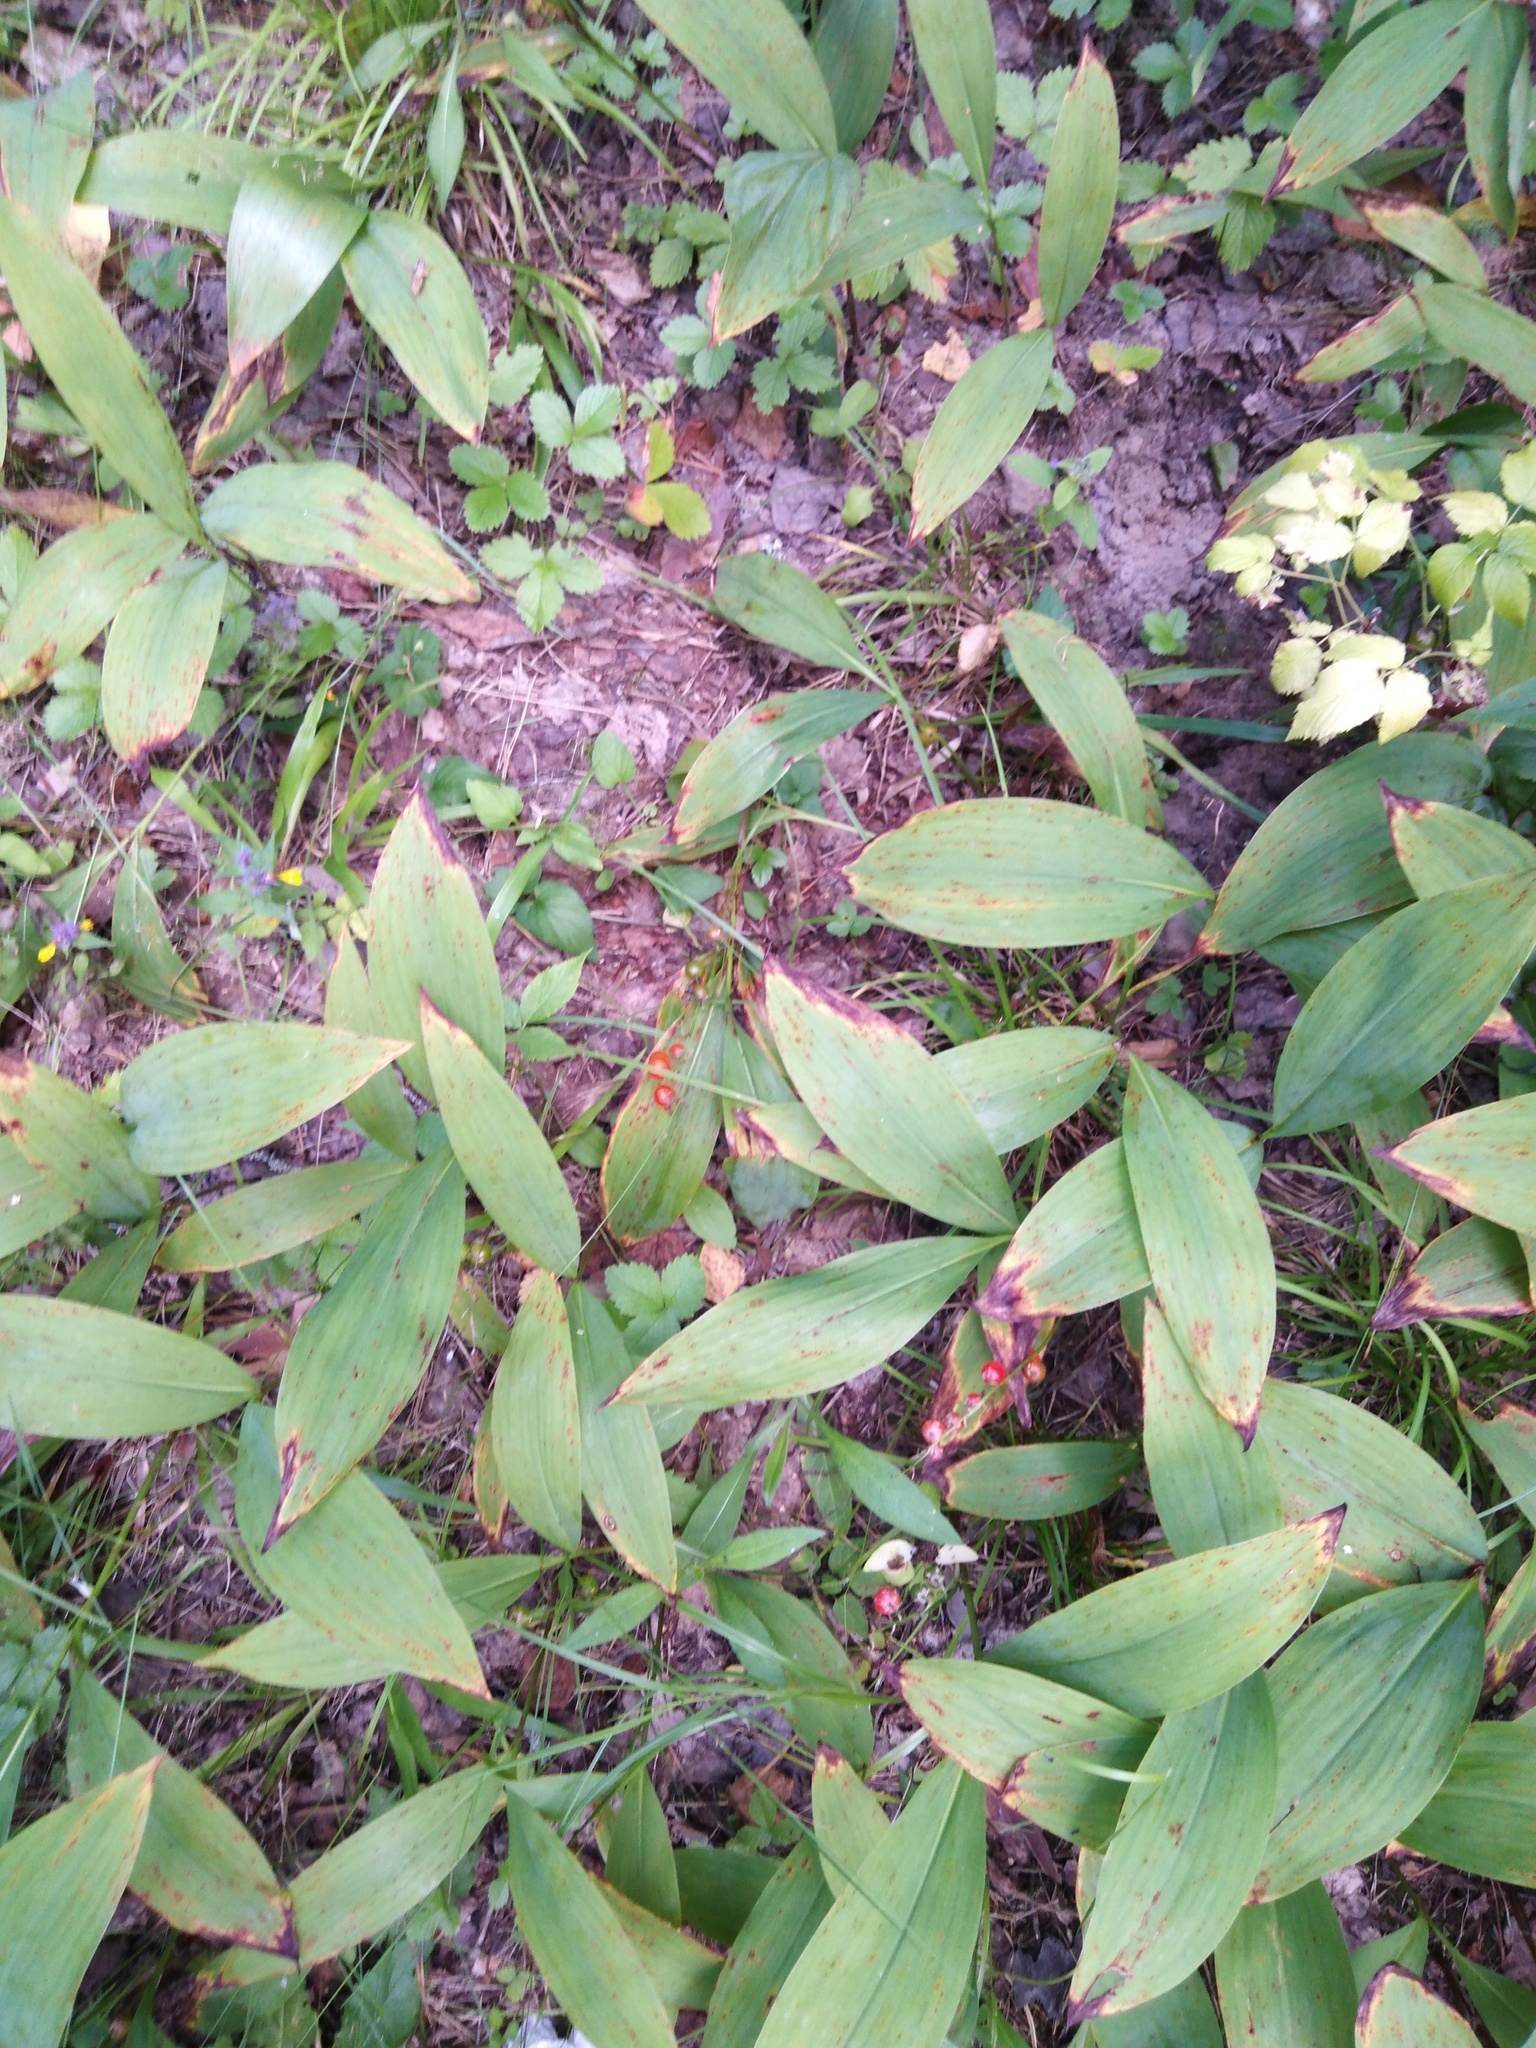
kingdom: Plantae
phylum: Tracheophyta
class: Liliopsida
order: Asparagales
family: Asparagaceae
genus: Convallaria
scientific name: Convallaria majalis
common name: Lily-of-the-valley
